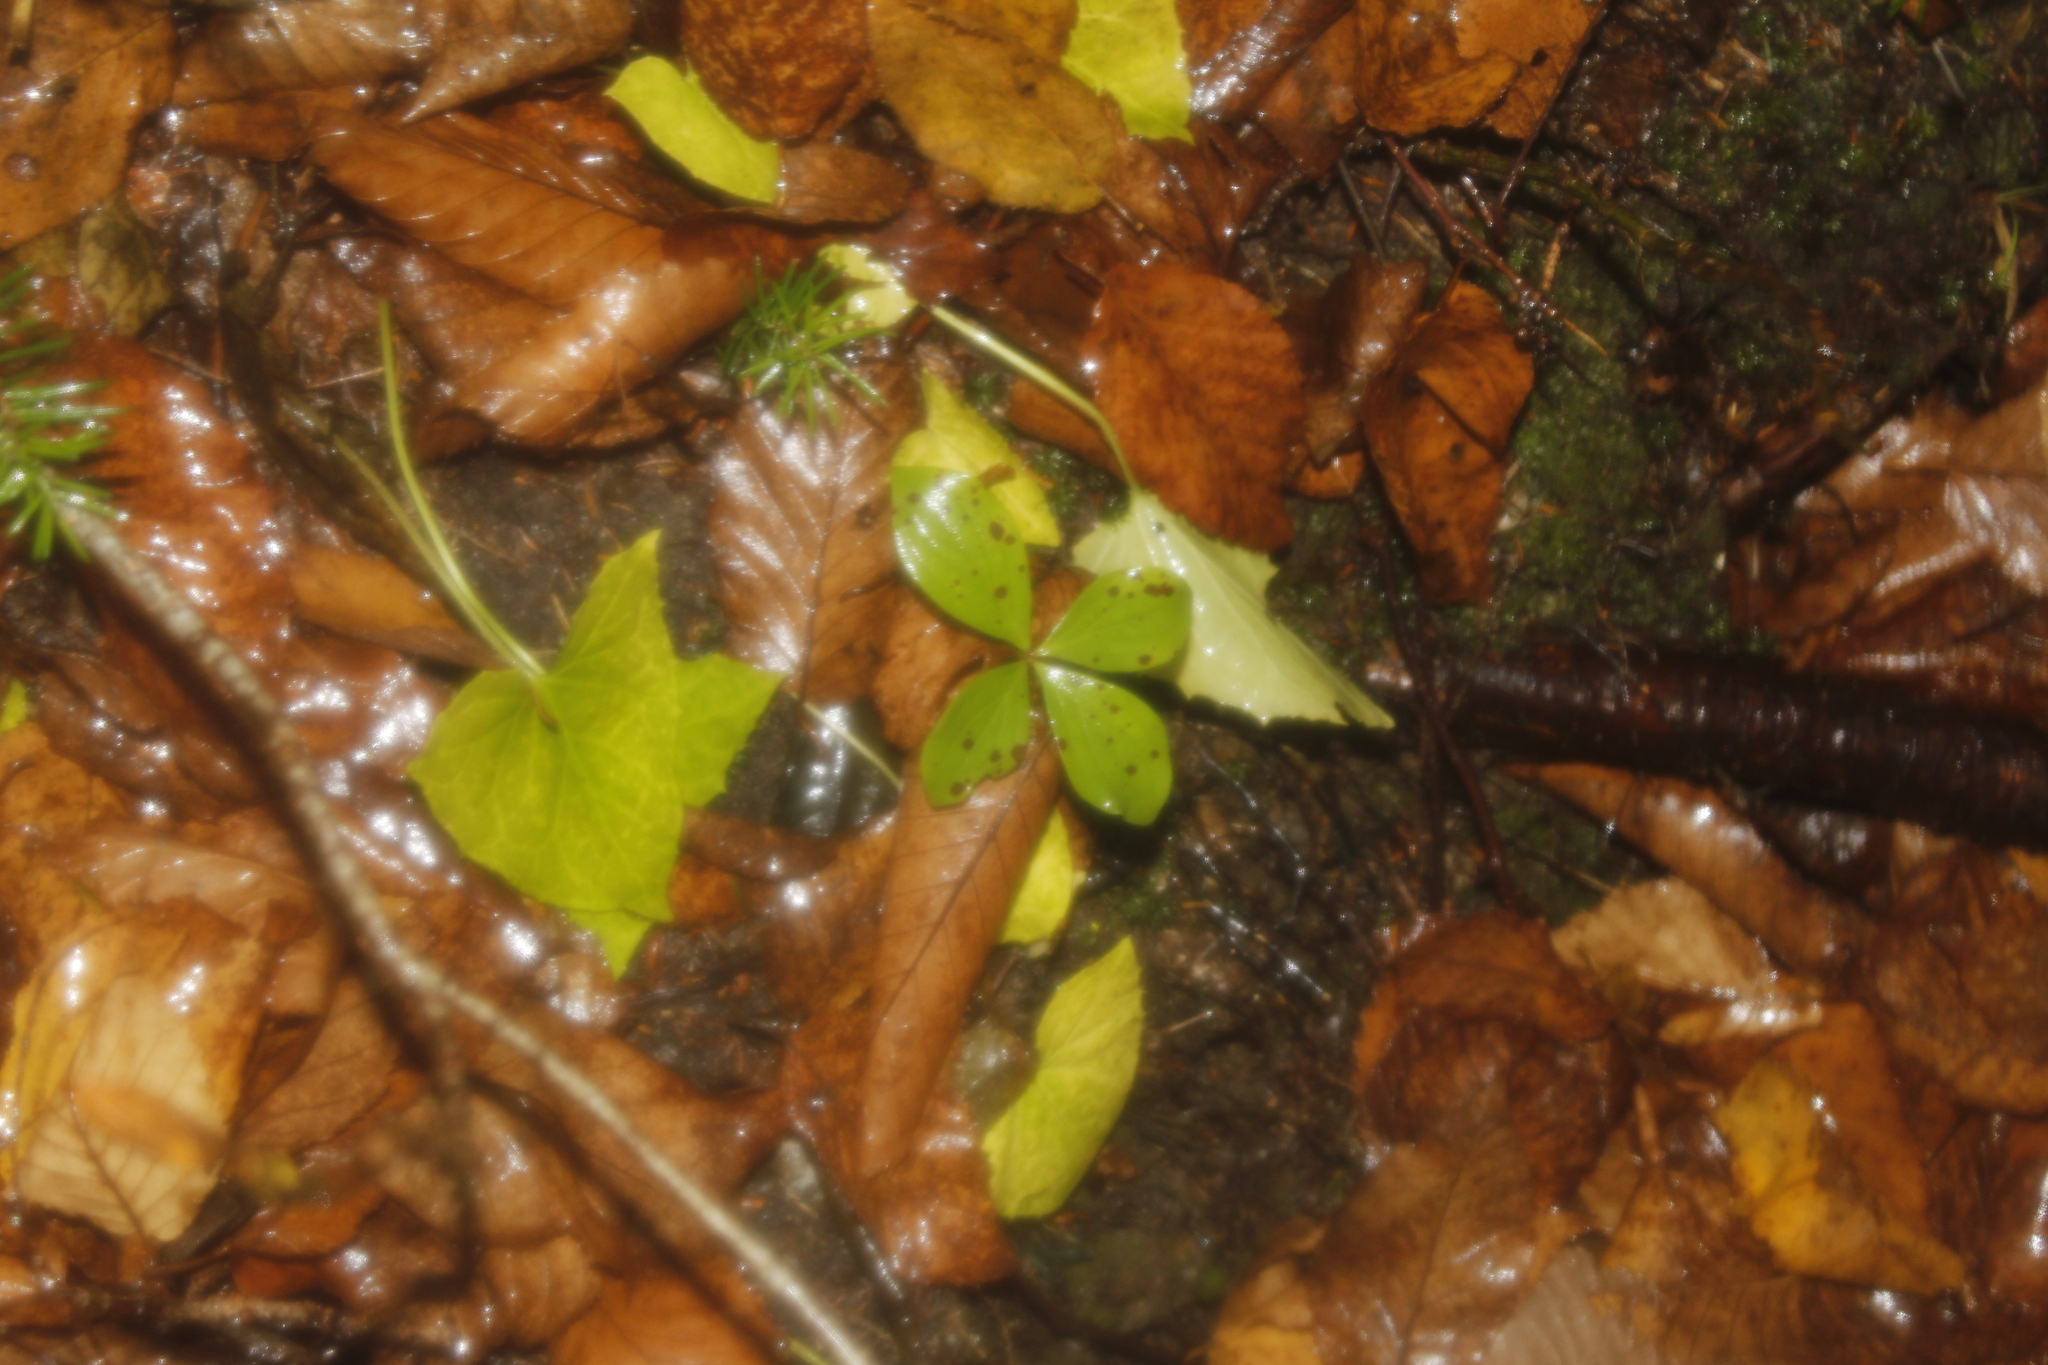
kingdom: Plantae
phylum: Tracheophyta
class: Magnoliopsida
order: Cornales
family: Cornaceae
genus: Cornus
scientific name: Cornus canadensis
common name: Creeping dogwood
